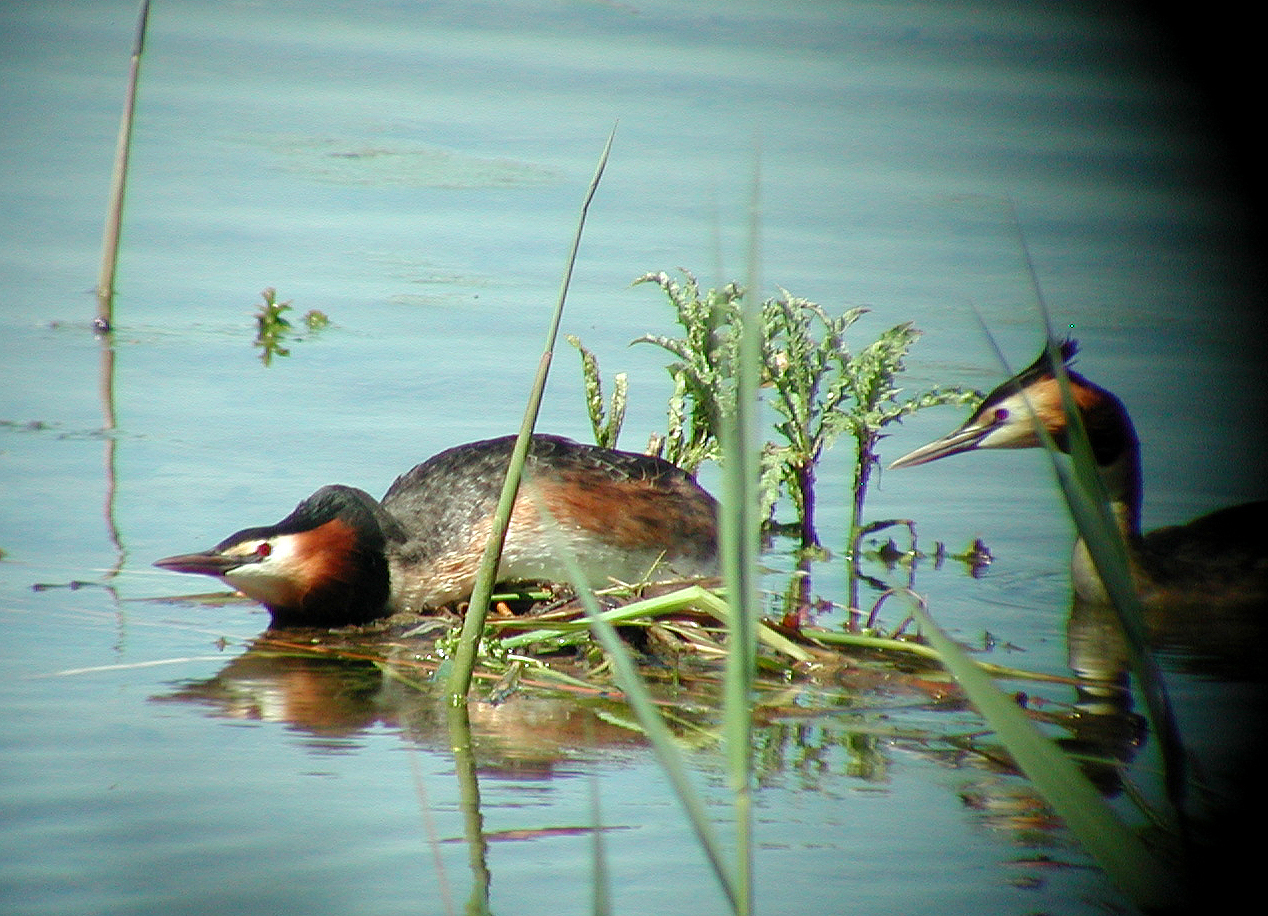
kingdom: Animalia
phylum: Chordata
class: Aves
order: Podicipediformes
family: Podicipedidae
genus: Podiceps
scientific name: Podiceps cristatus
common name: Great crested grebe
